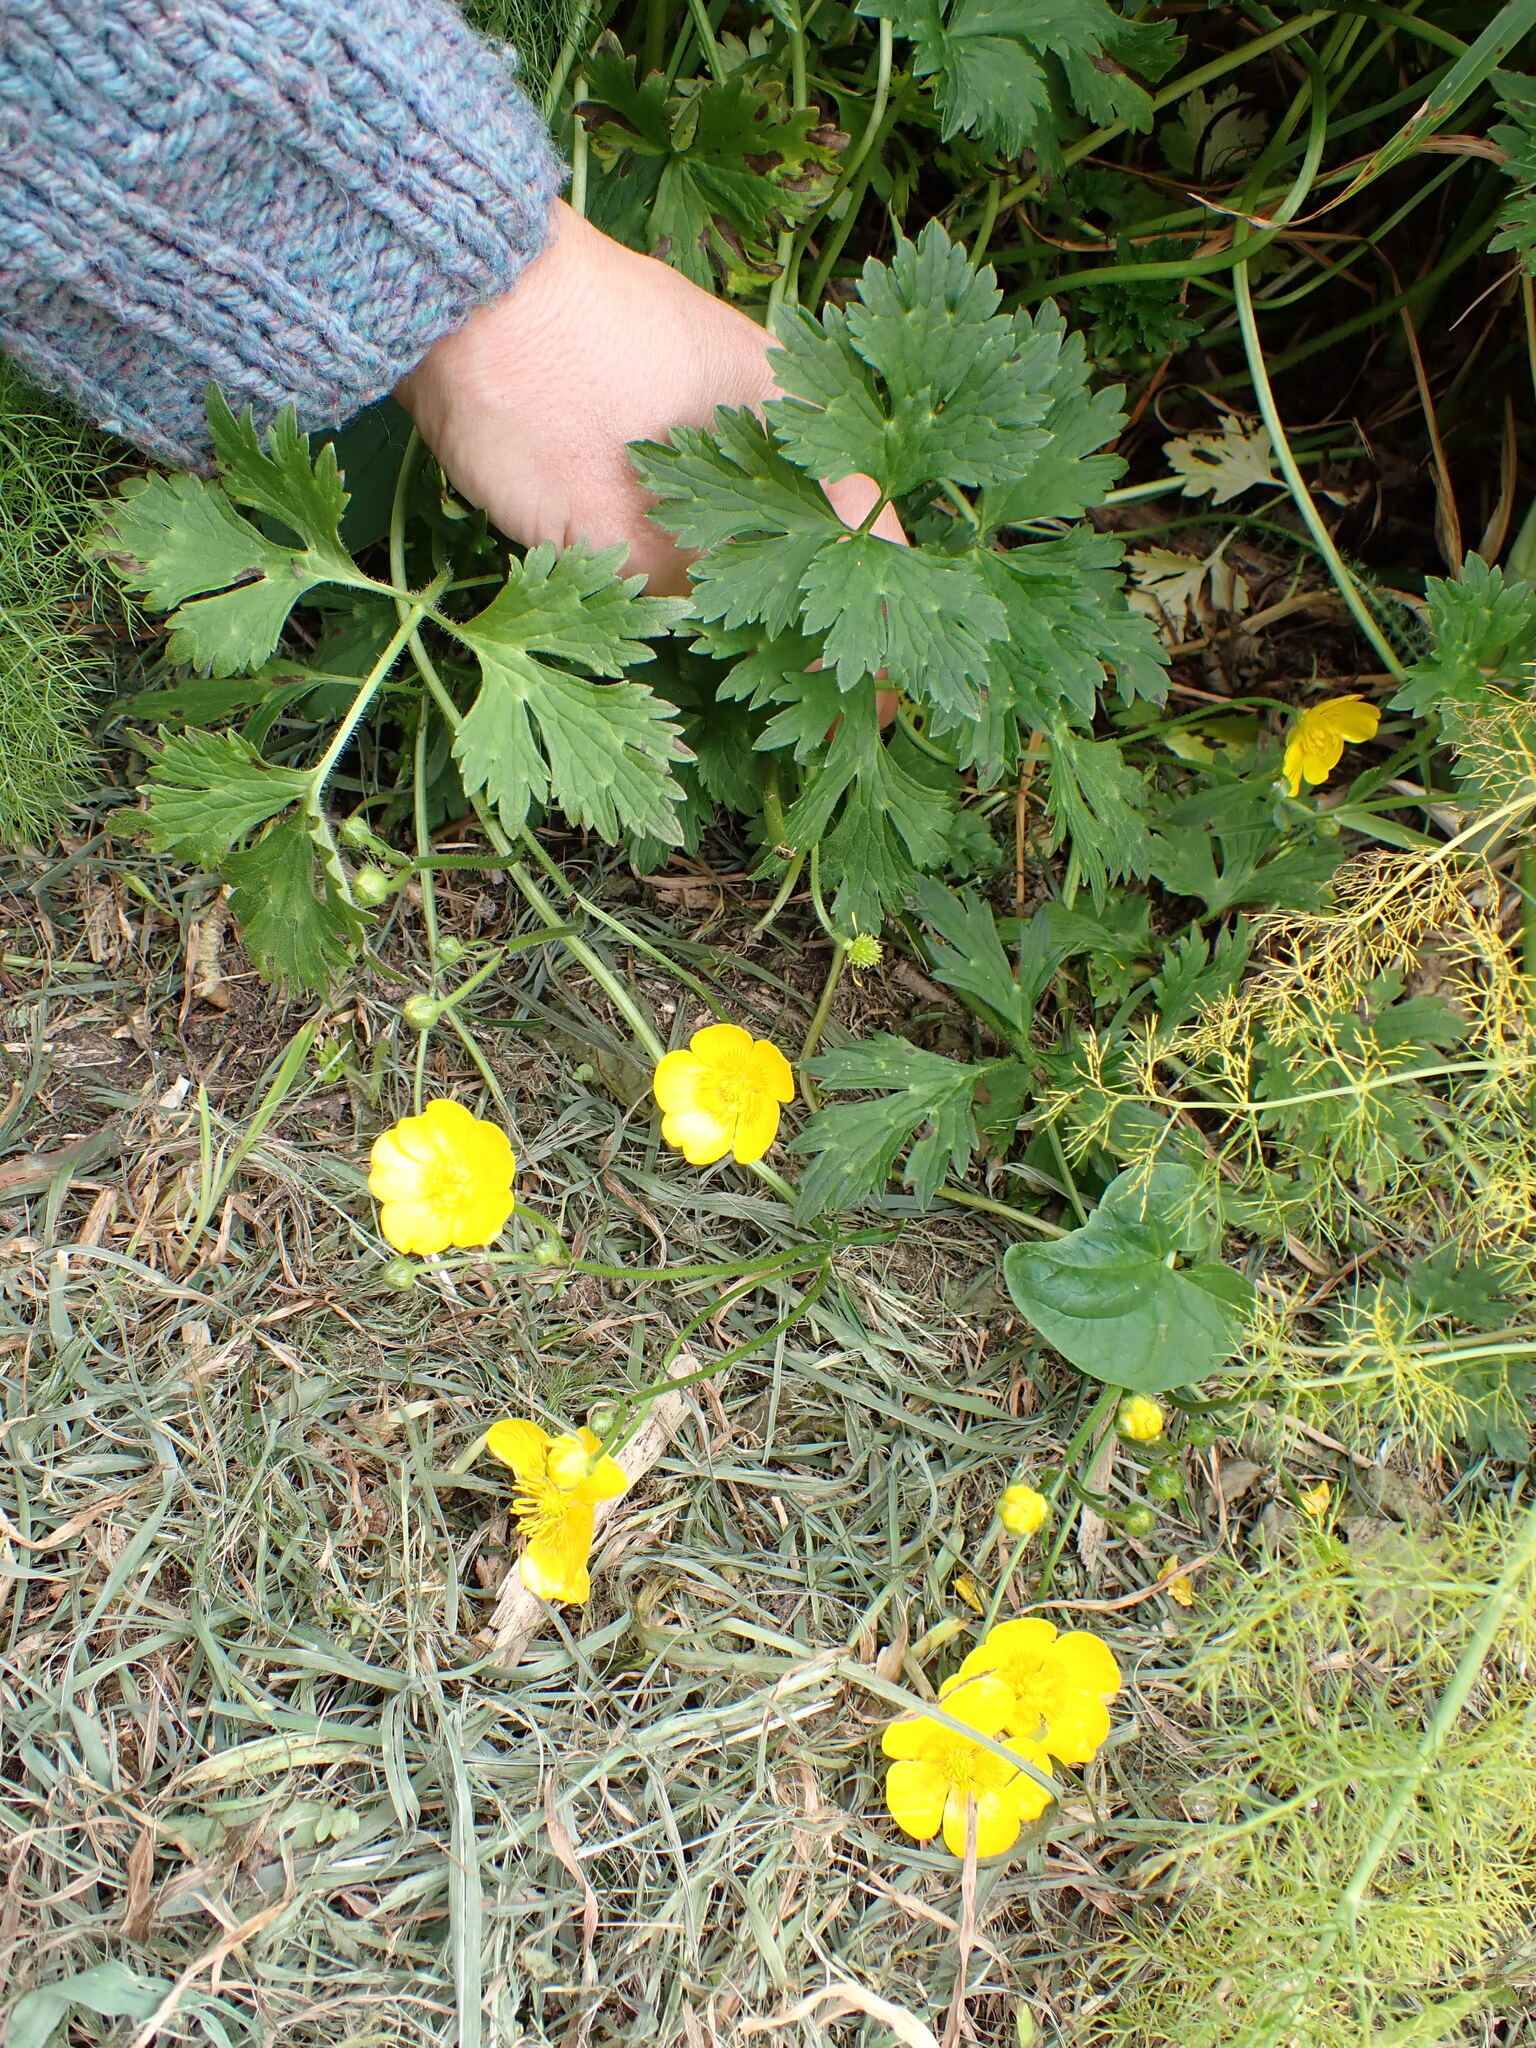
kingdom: Plantae
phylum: Tracheophyta
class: Magnoliopsida
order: Ranunculales
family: Ranunculaceae
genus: Ranunculus
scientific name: Ranunculus repens
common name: Creeping buttercup
